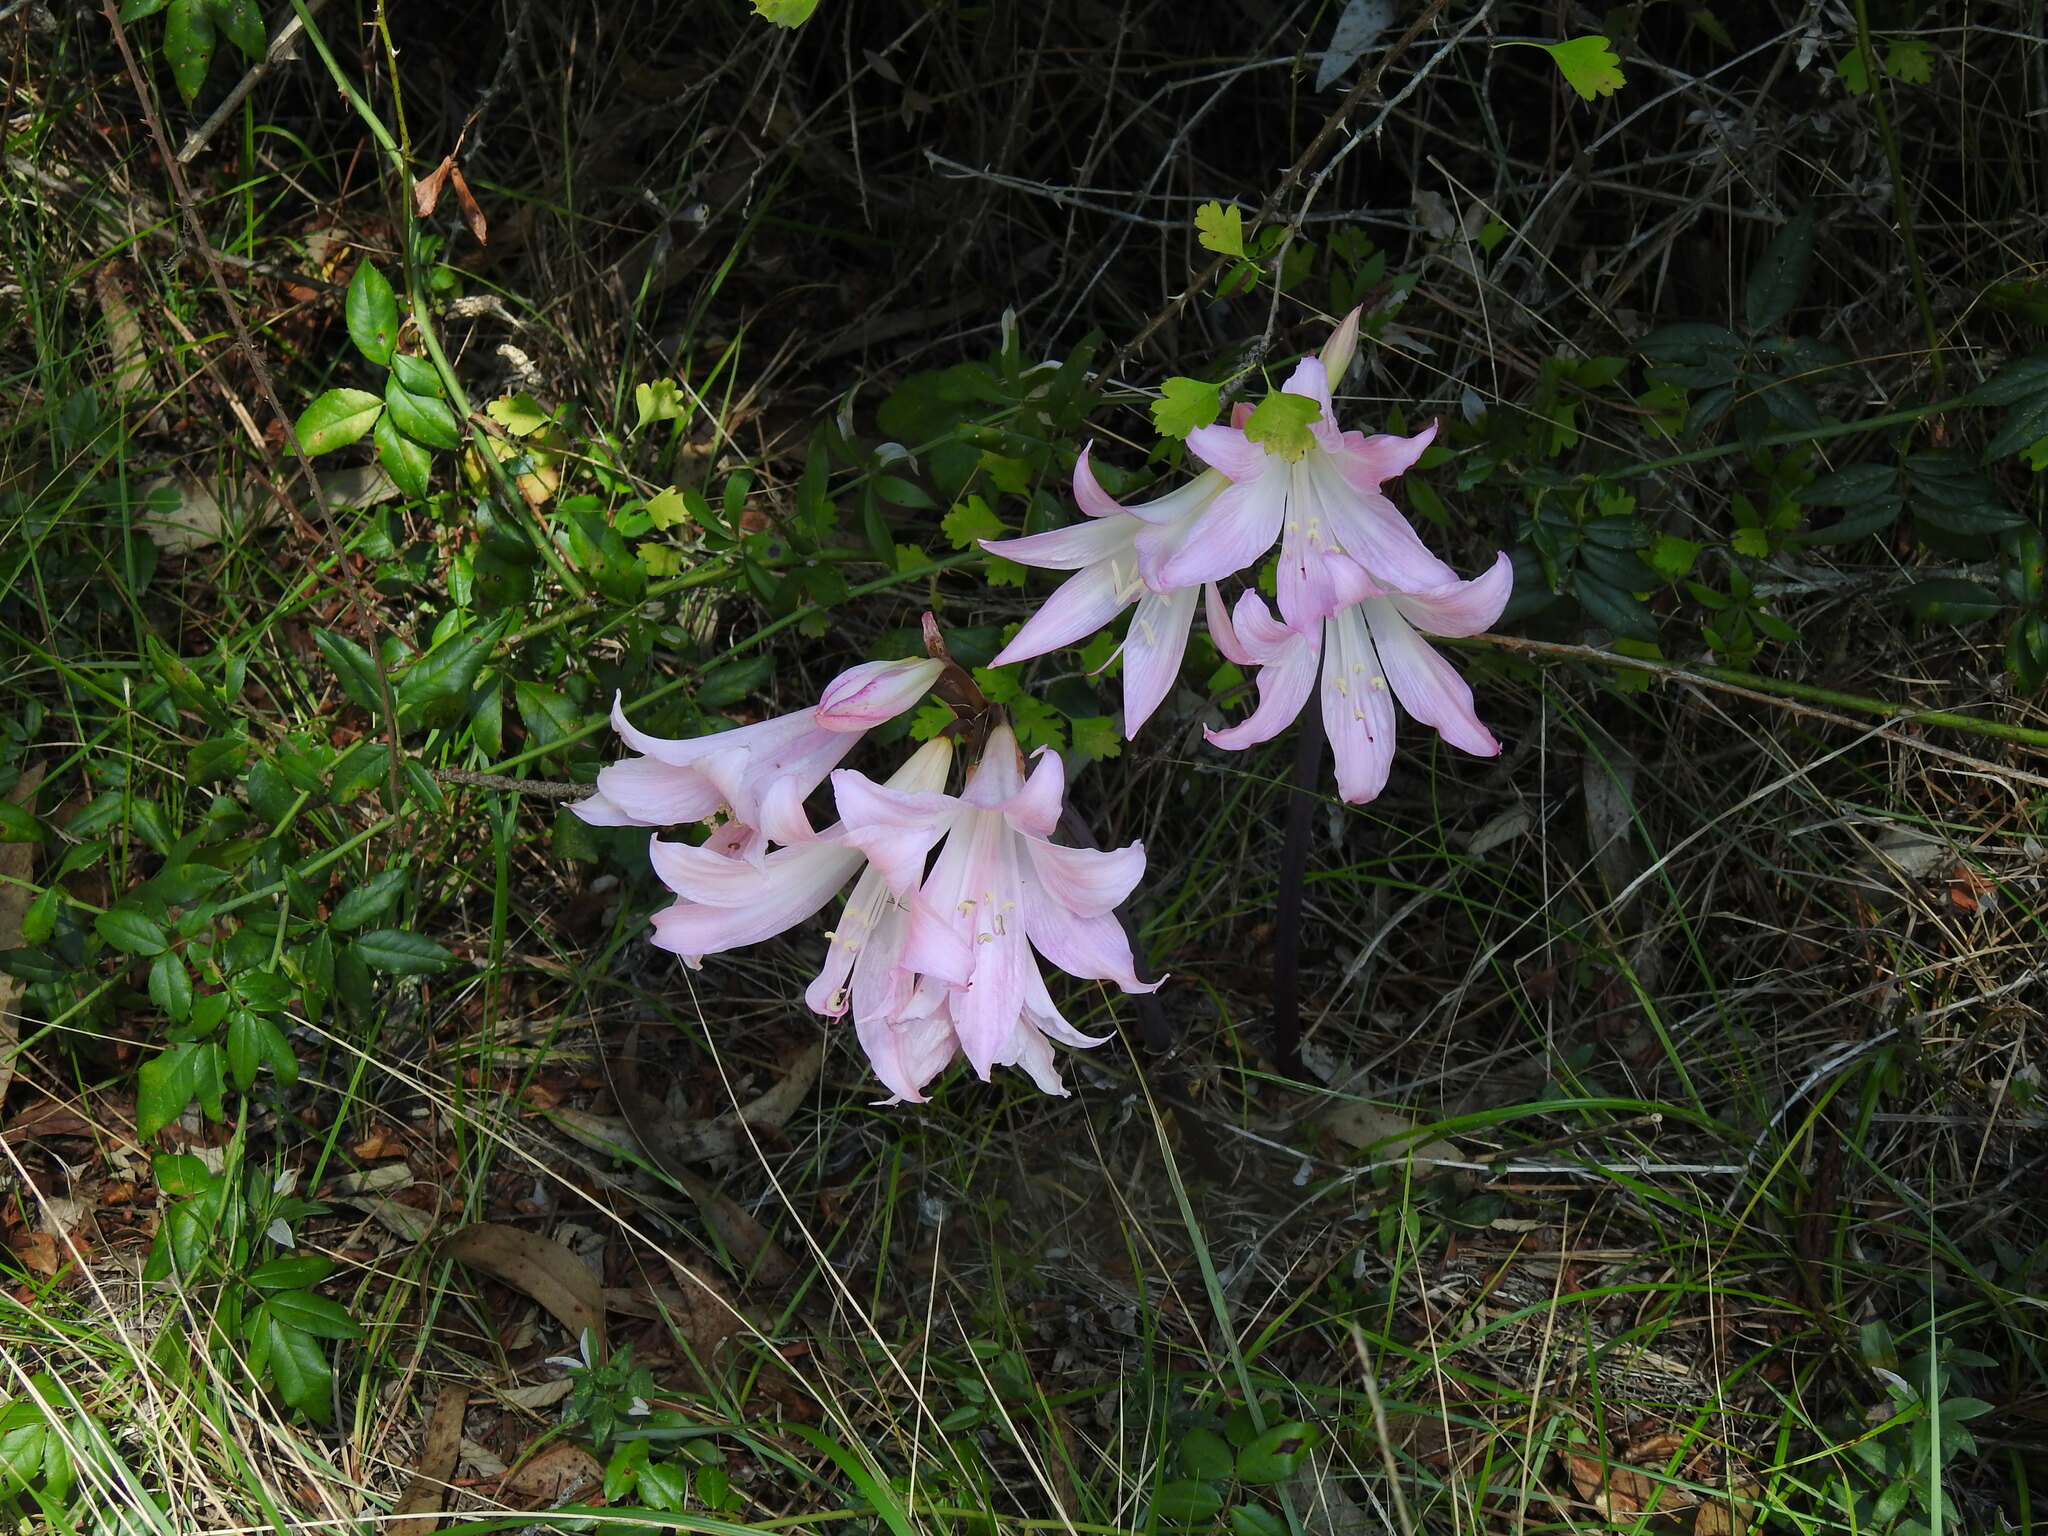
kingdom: Plantae
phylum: Tracheophyta
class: Liliopsida
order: Asparagales
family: Amaryllidaceae
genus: Amaryllis
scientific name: Amaryllis belladonna
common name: Jersey lily
